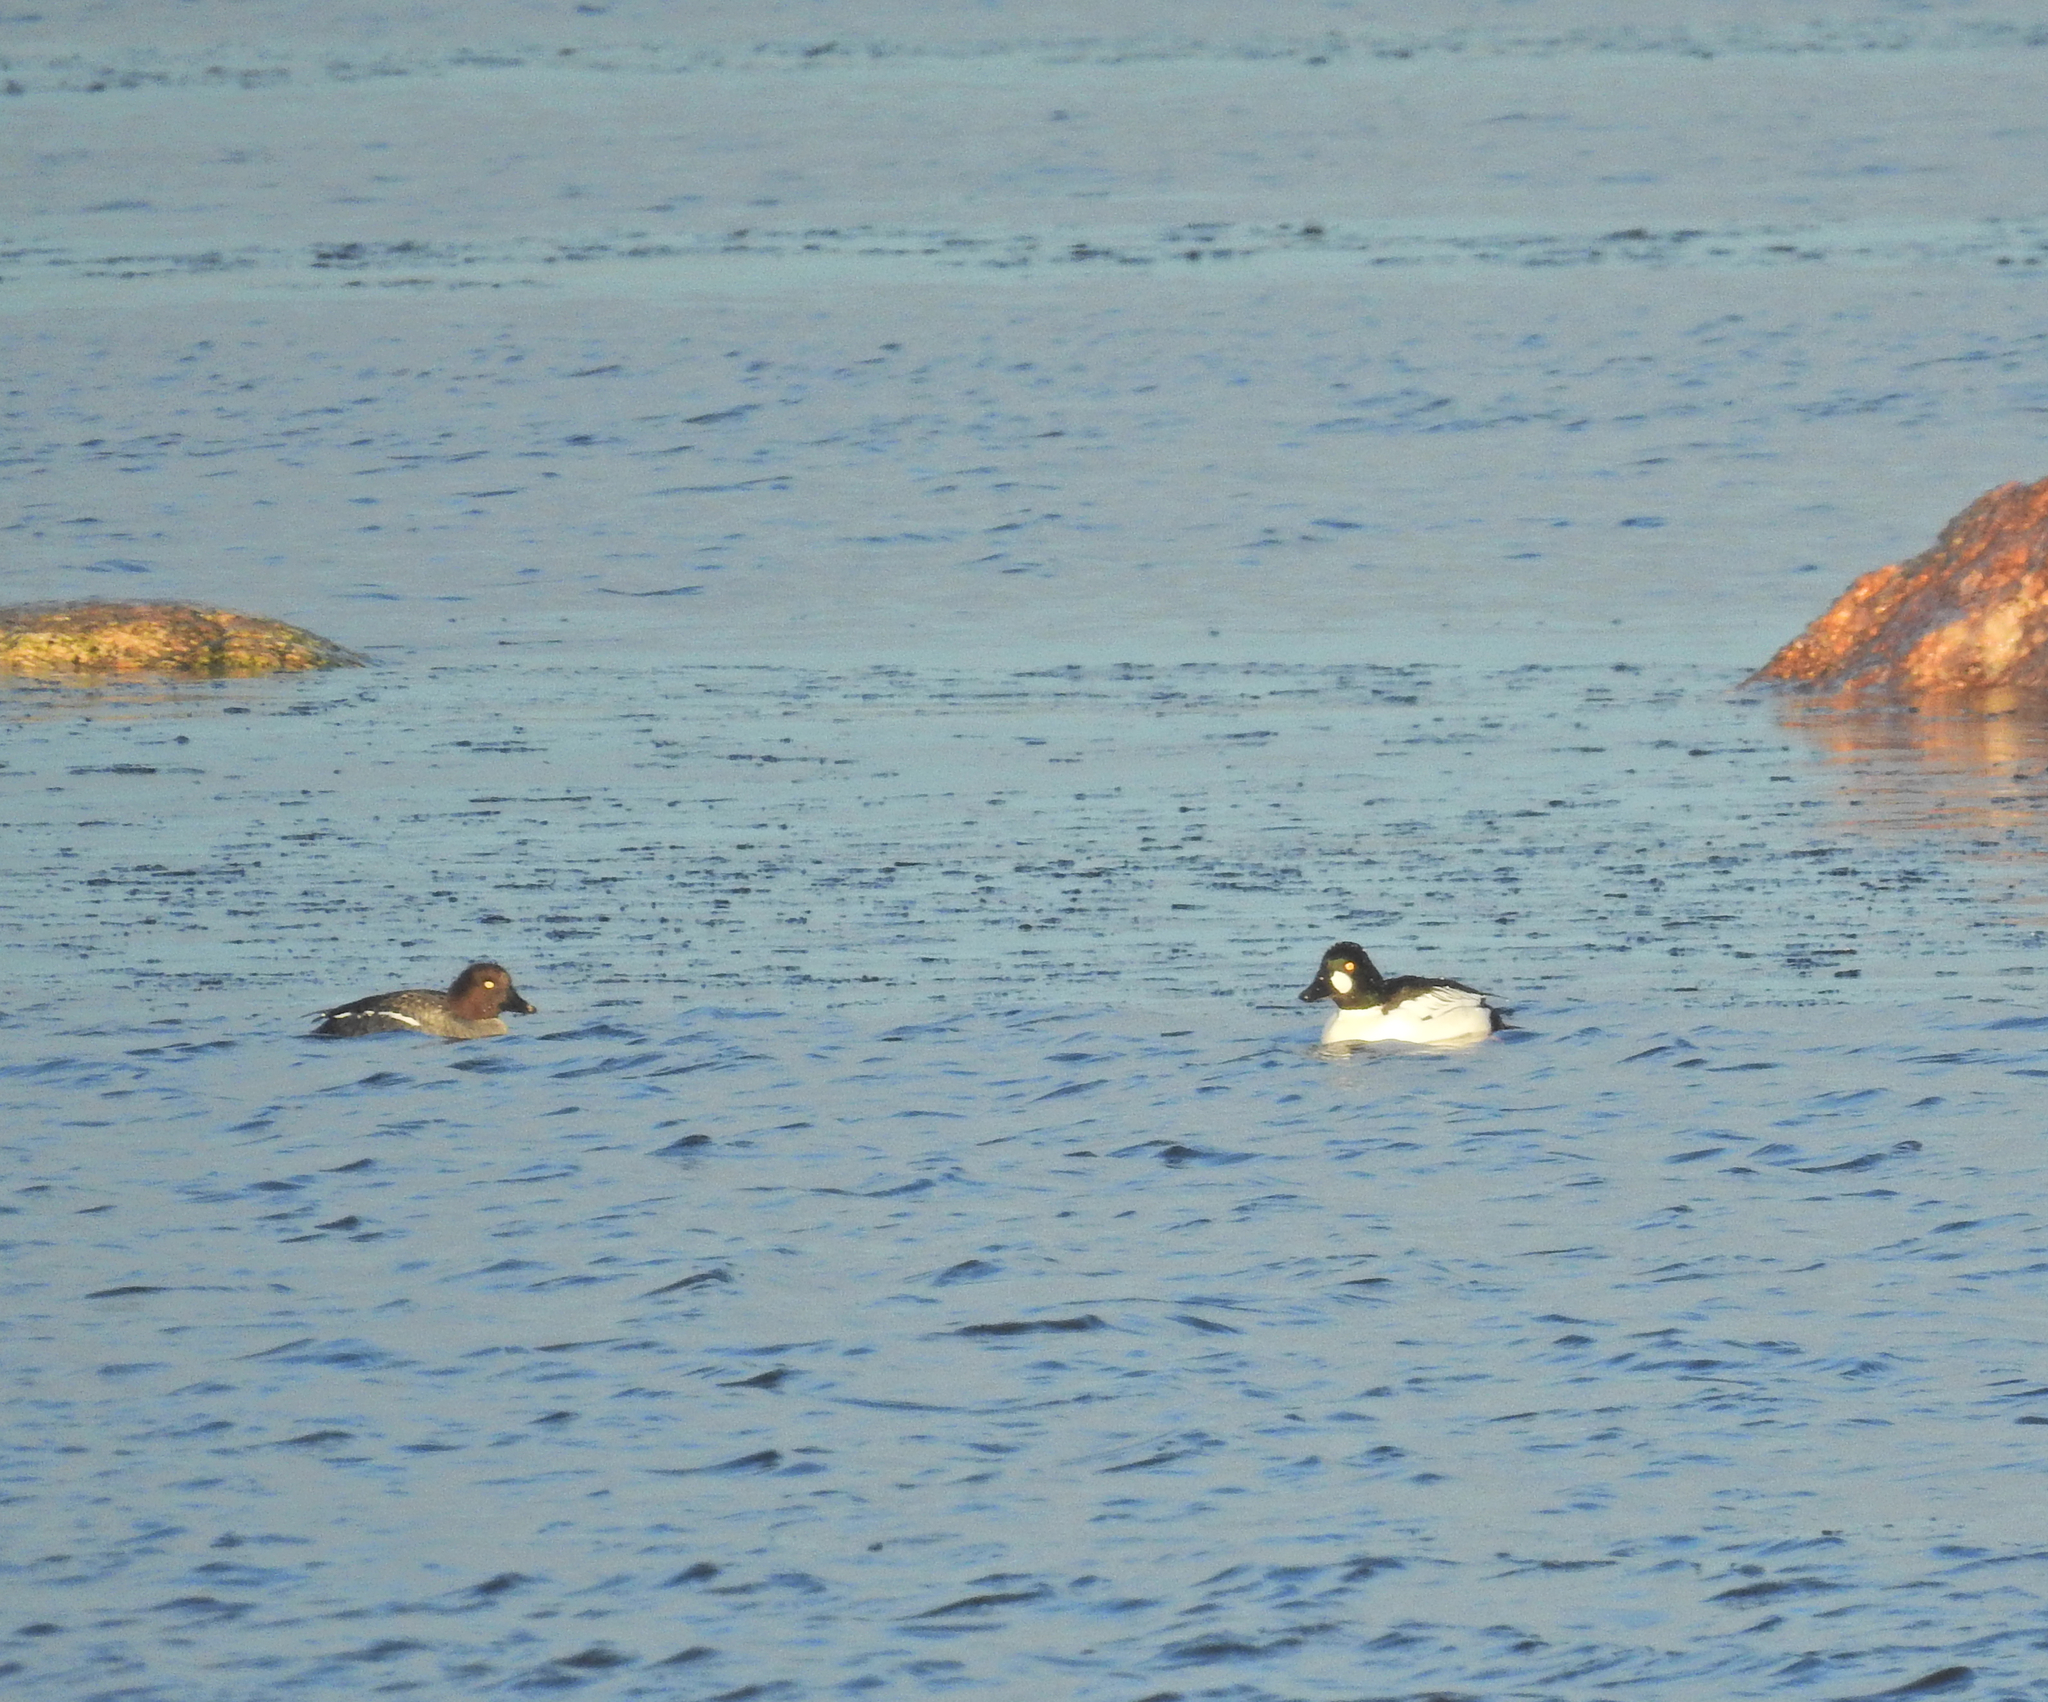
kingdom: Animalia
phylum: Chordata
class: Aves
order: Anseriformes
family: Anatidae
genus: Bucephala
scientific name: Bucephala clangula
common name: Common goldeneye
